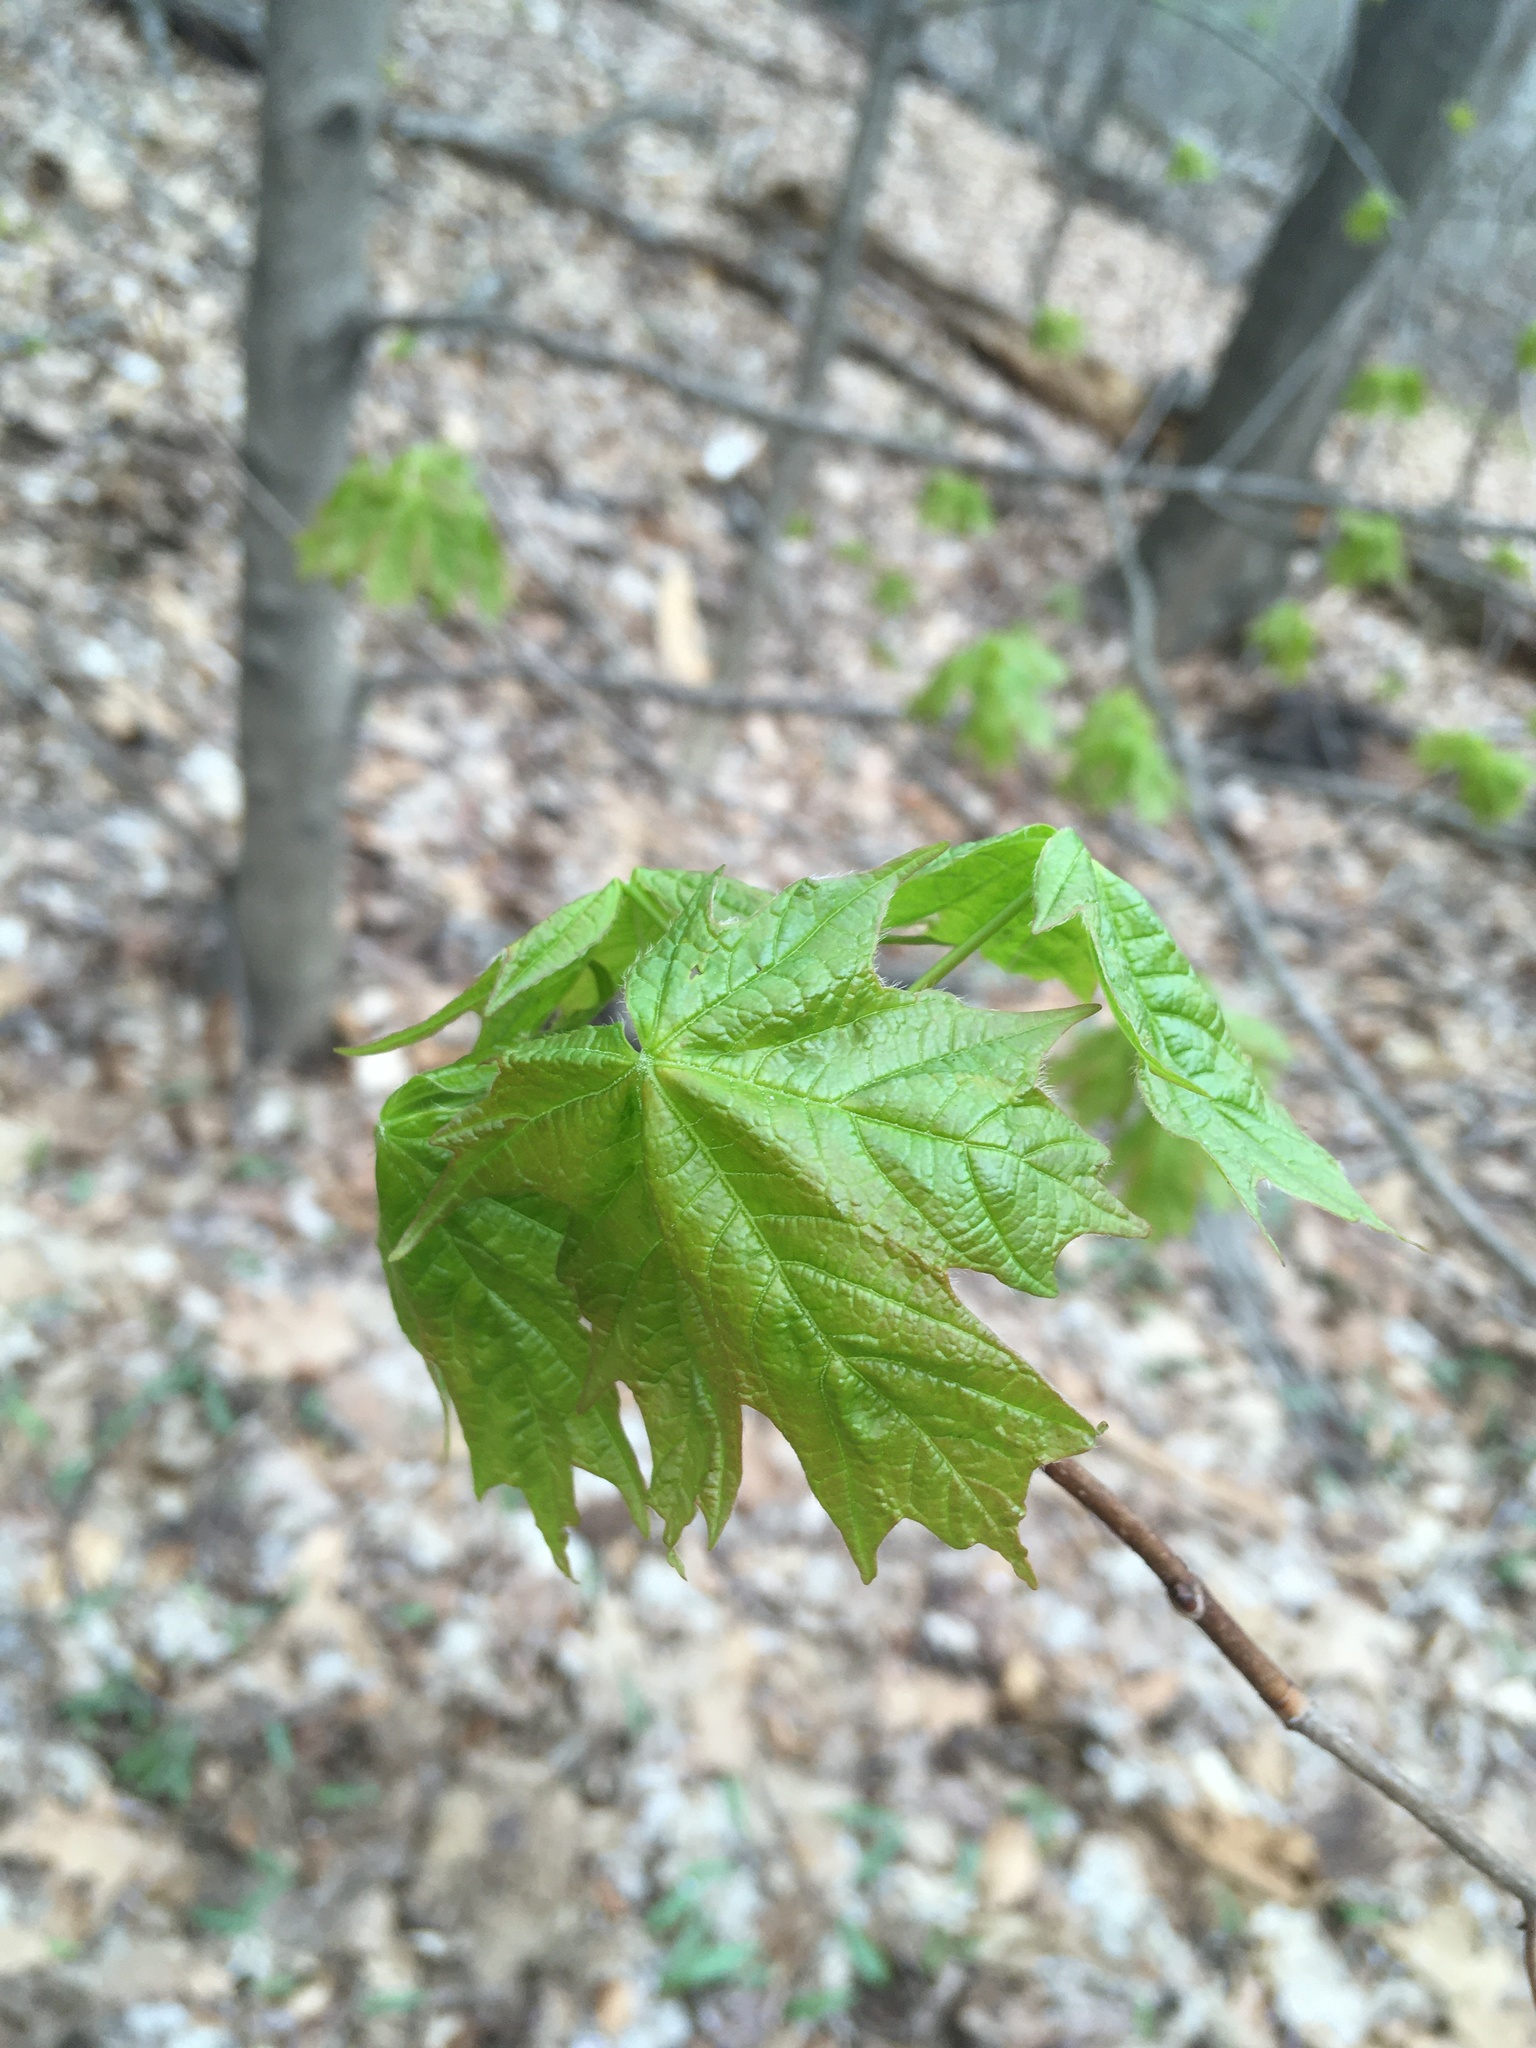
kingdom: Plantae
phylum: Tracheophyta
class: Magnoliopsida
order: Sapindales
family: Sapindaceae
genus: Acer
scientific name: Acer saccharum
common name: Sugar maple
